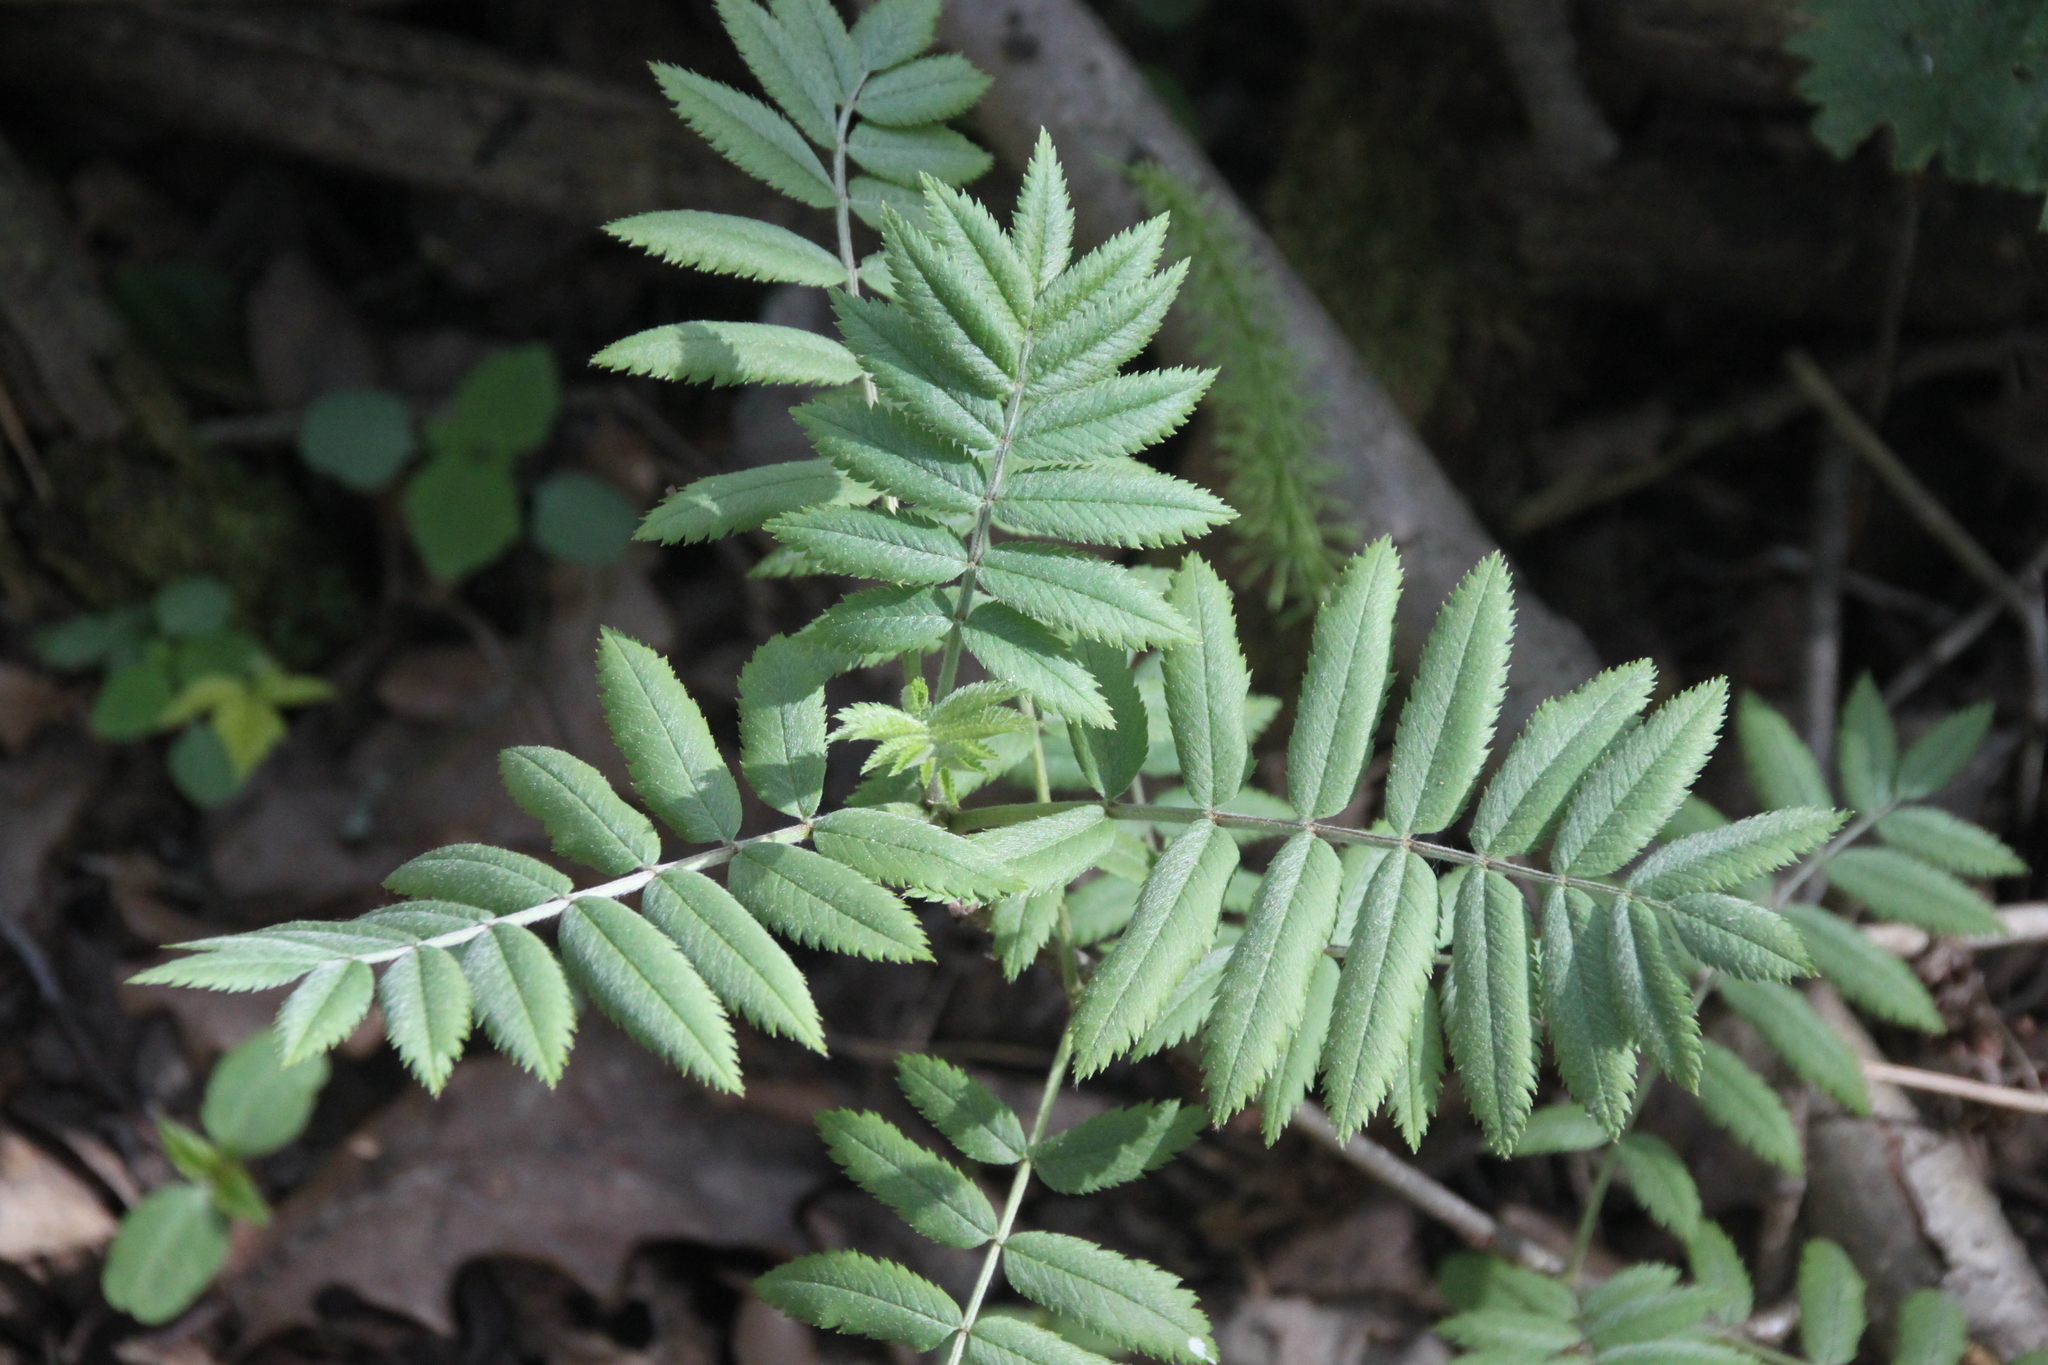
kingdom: Plantae
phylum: Tracheophyta
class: Magnoliopsida
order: Rosales
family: Rosaceae
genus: Sorbus
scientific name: Sorbus aucuparia
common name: Rowan
